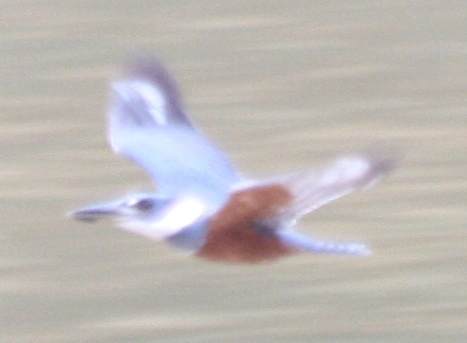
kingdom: Animalia
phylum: Chordata
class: Aves
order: Coraciiformes
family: Alcedinidae
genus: Megaceryle
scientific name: Megaceryle torquata
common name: Ringed kingfisher
